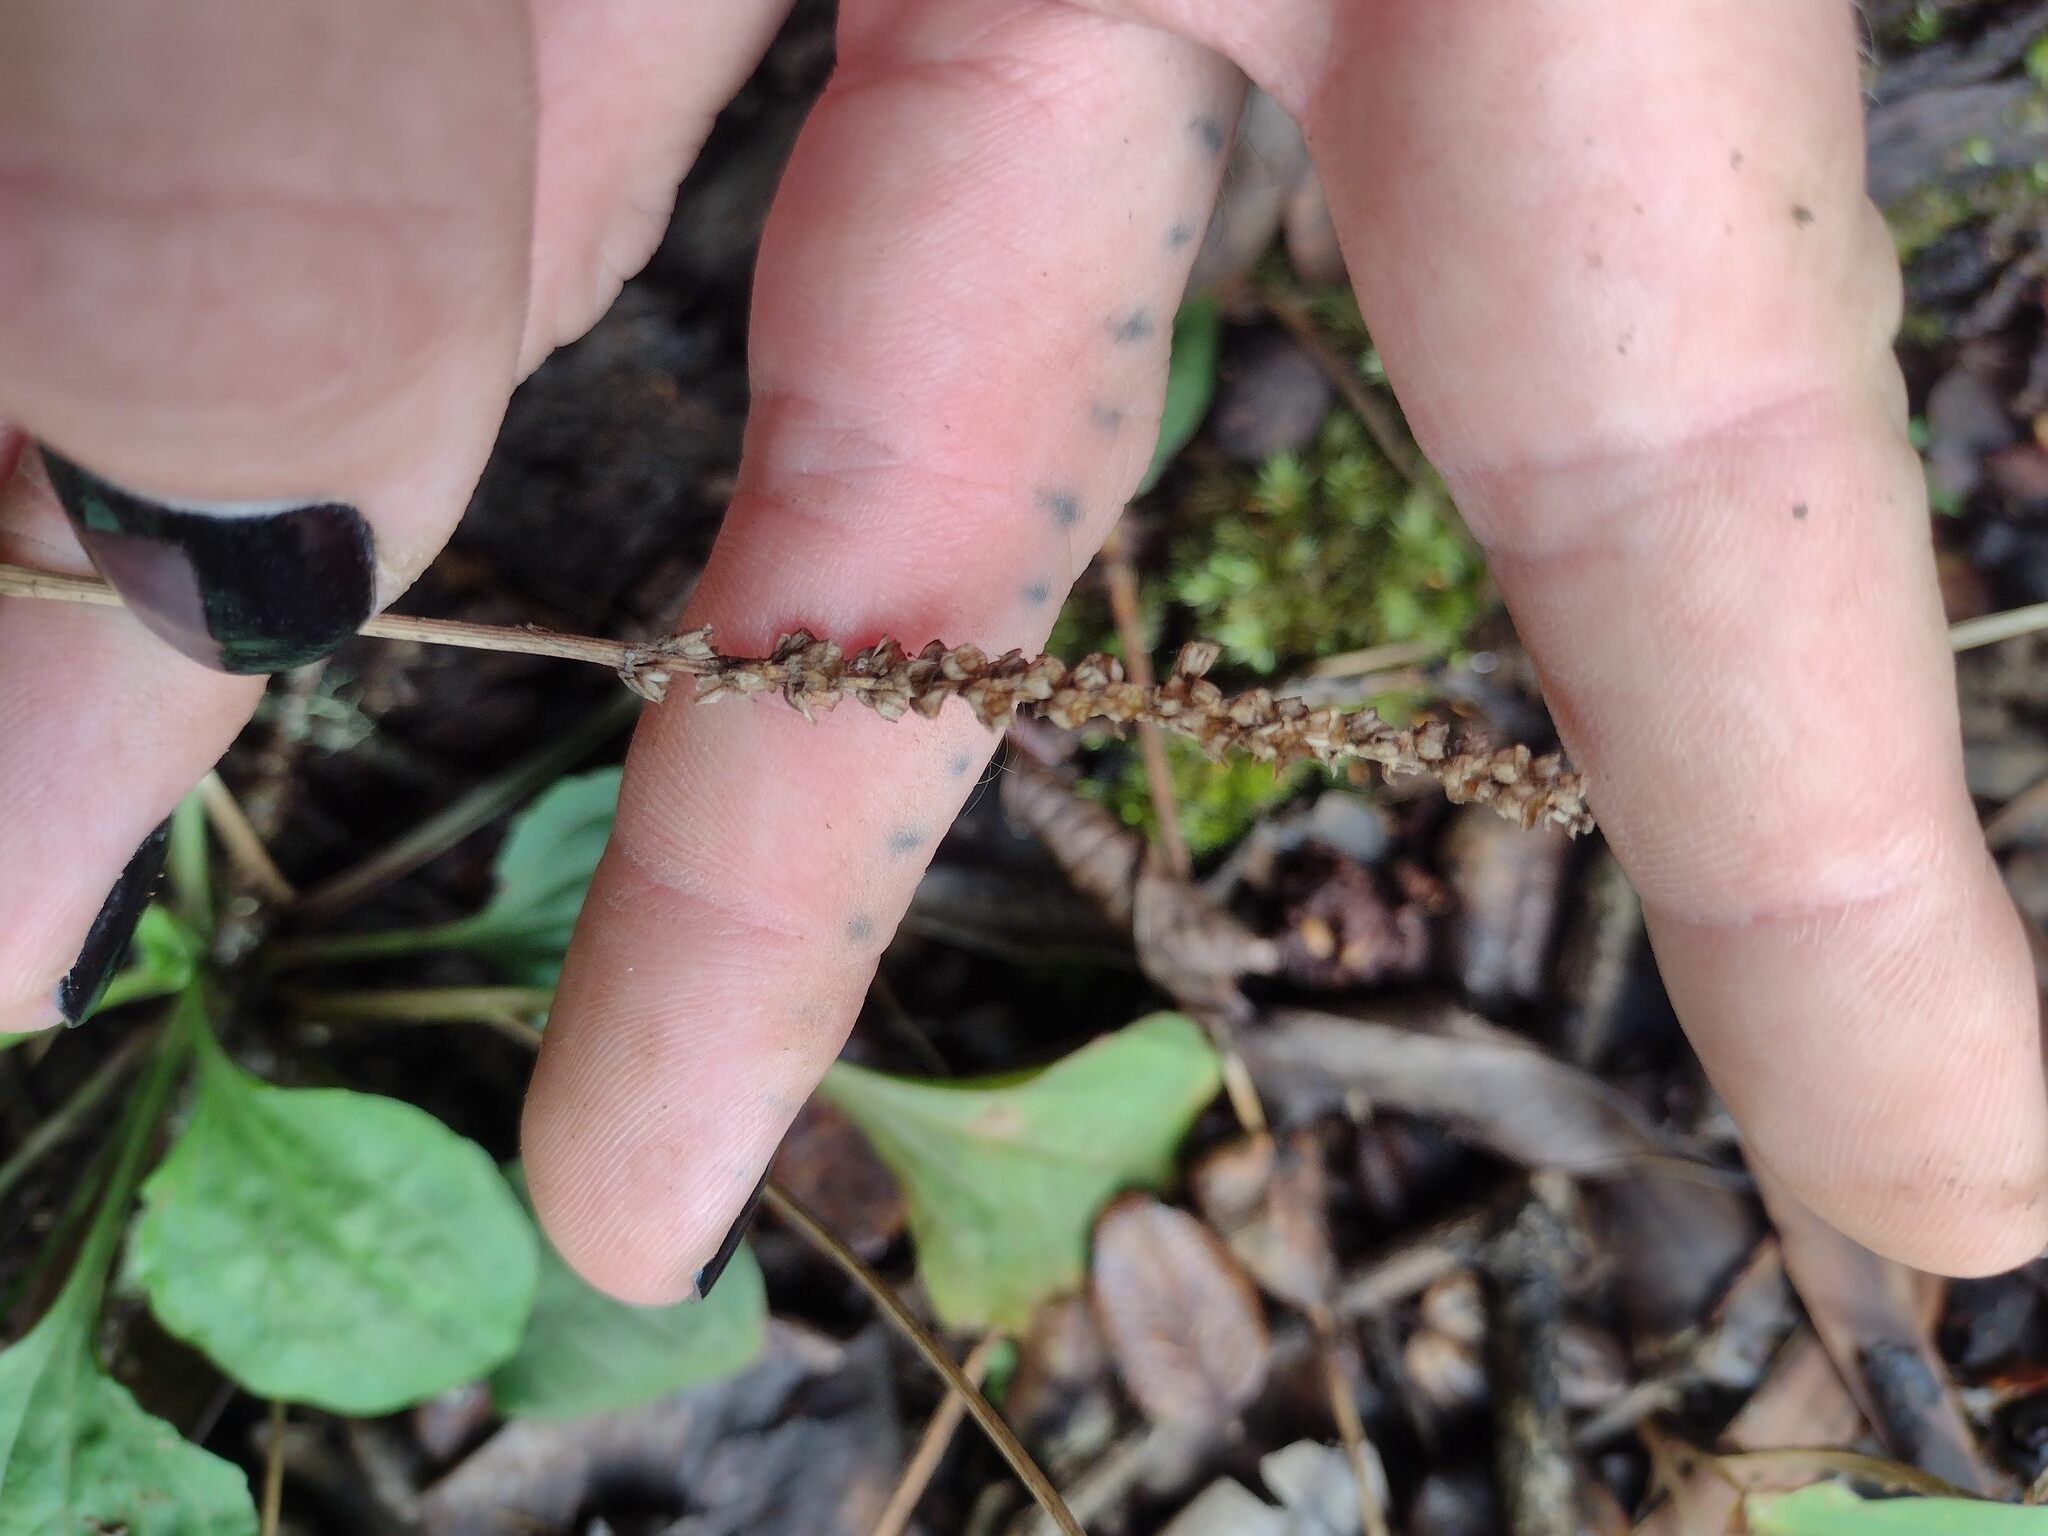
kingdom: Plantae
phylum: Tracheophyta
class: Magnoliopsida
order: Lamiales
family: Plantaginaceae
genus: Plantago
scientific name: Plantago major
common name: Common plantain
